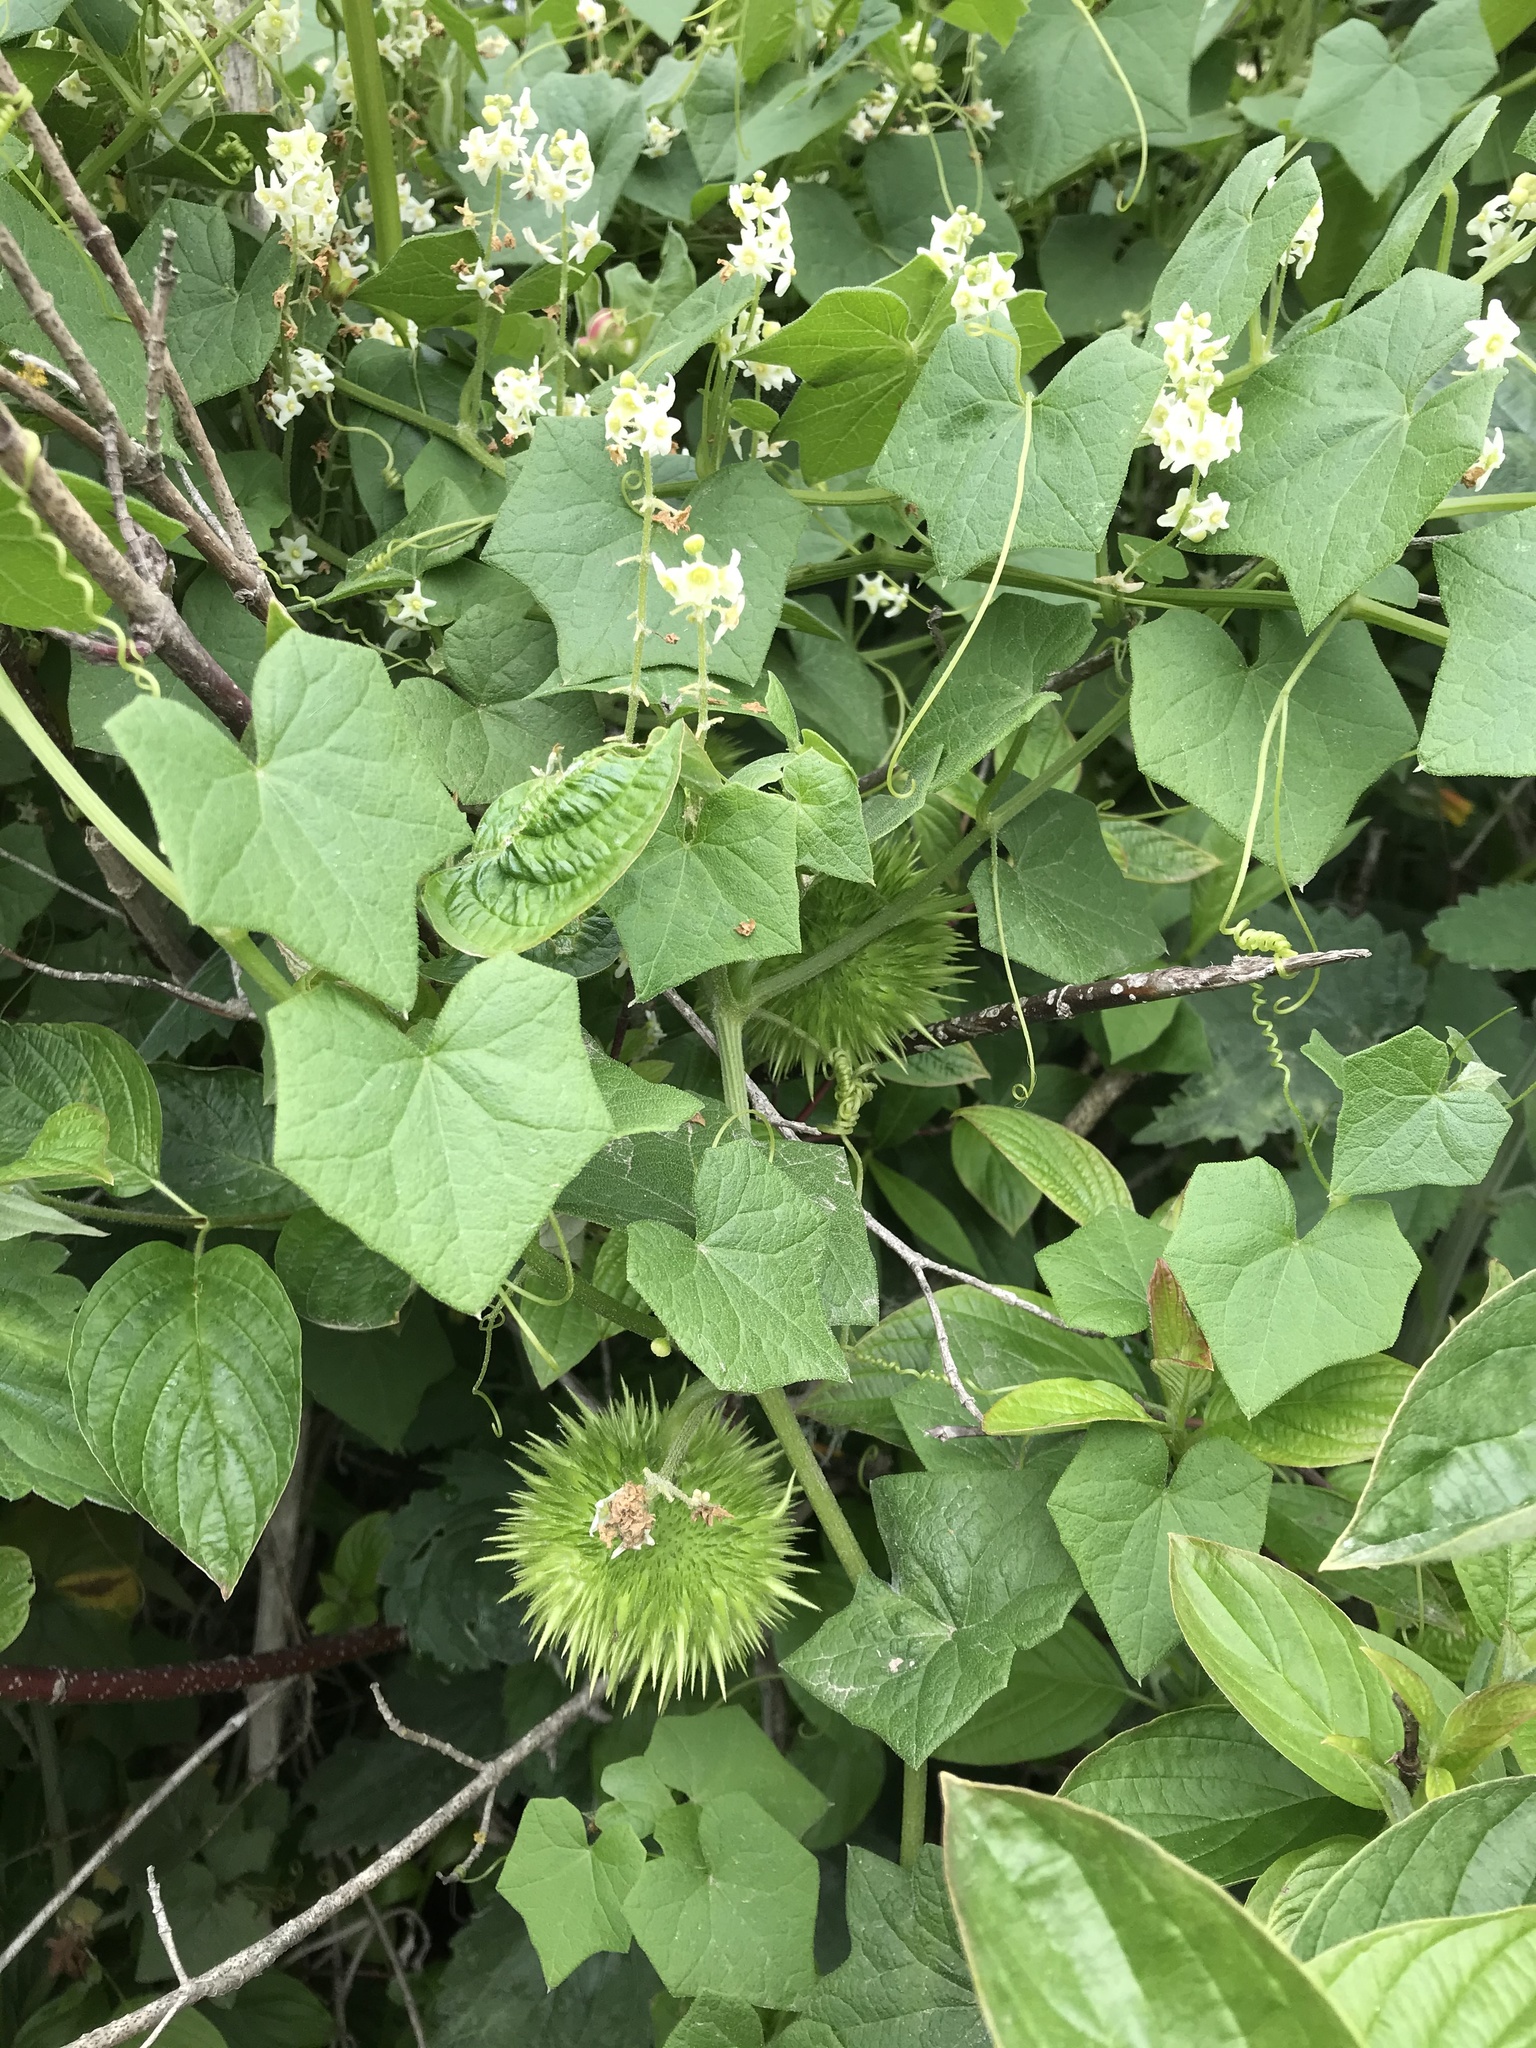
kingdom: Plantae
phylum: Tracheophyta
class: Magnoliopsida
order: Cucurbitales
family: Cucurbitaceae
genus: Marah
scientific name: Marah fabacea
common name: California manroot
